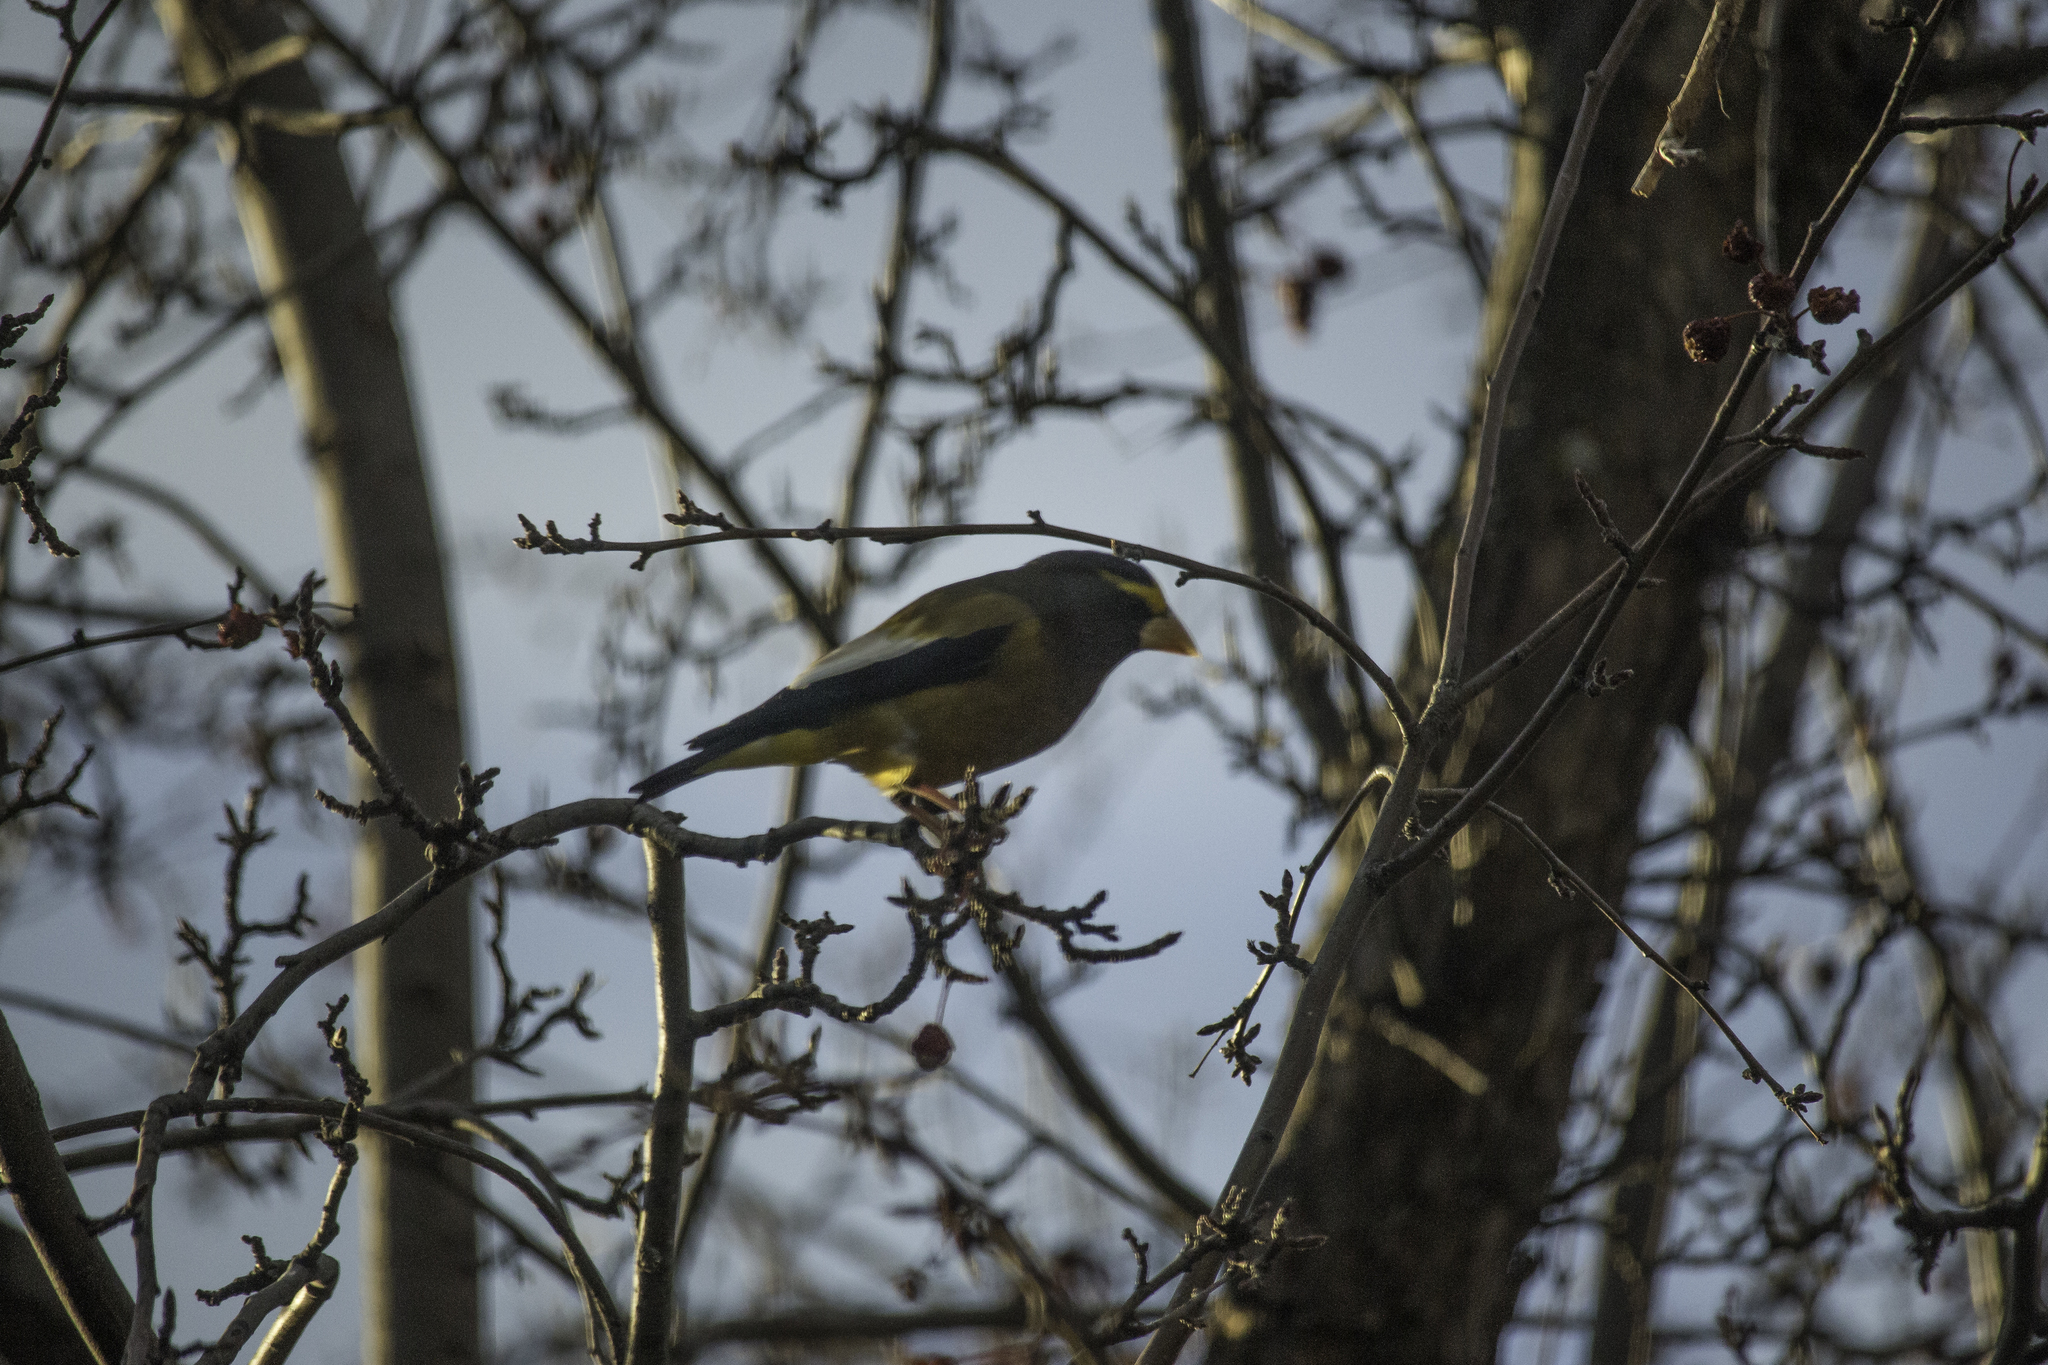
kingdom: Animalia
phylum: Chordata
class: Aves
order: Passeriformes
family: Fringillidae
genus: Hesperiphona
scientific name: Hesperiphona vespertina
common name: Evening grosbeak
